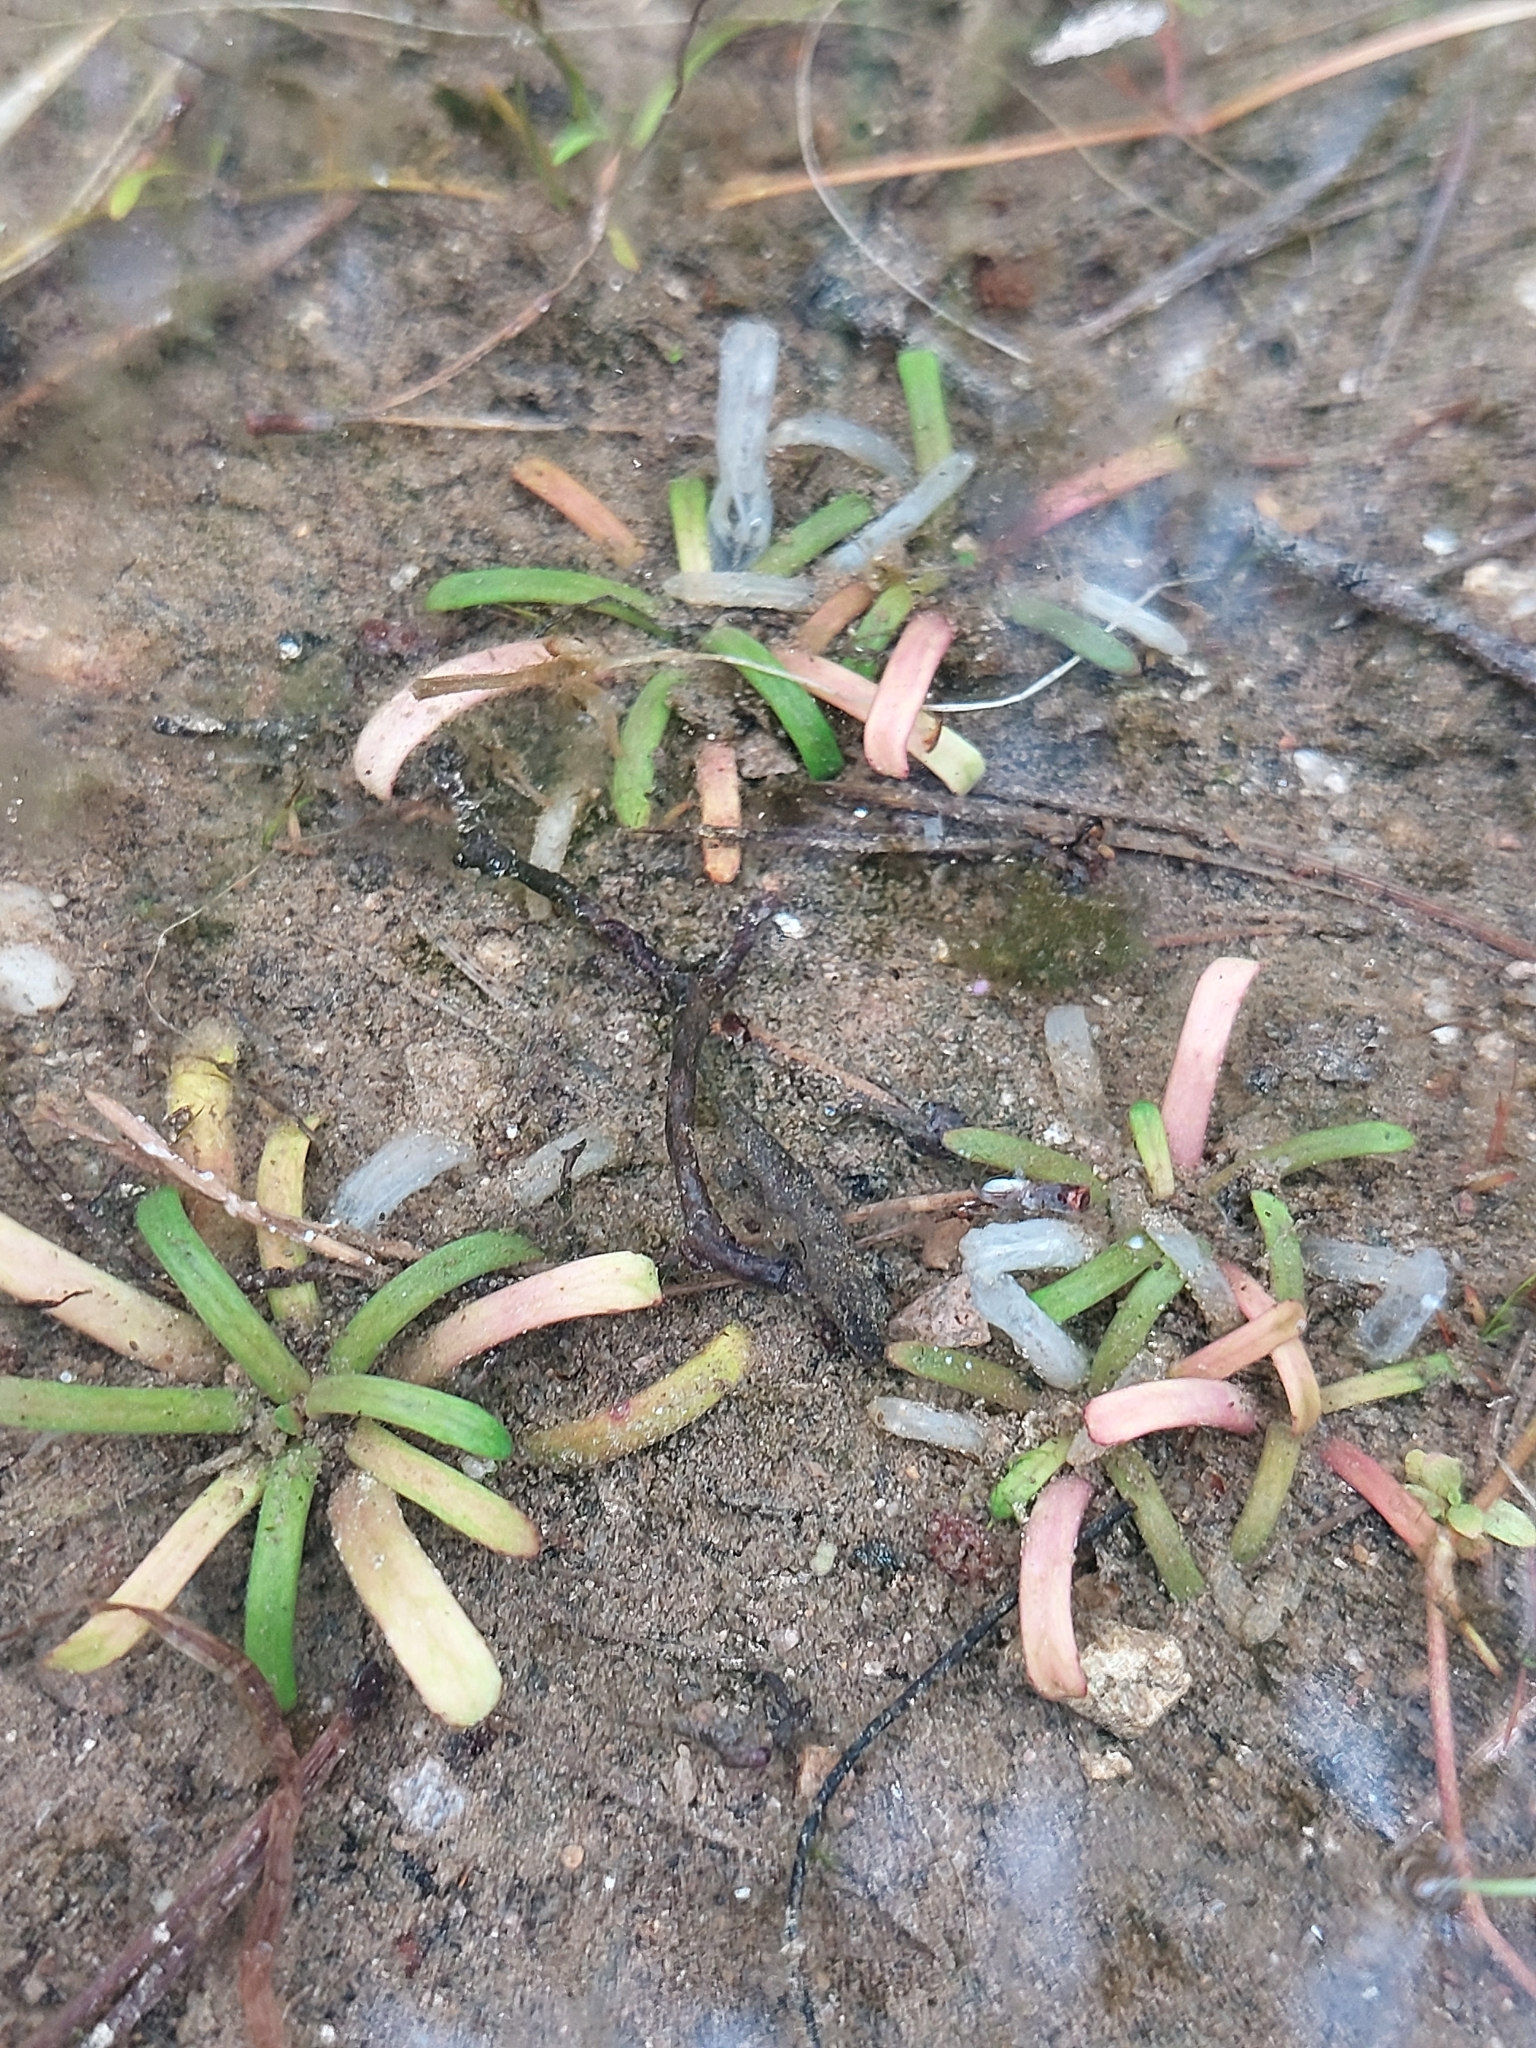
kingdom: Plantae
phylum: Tracheophyta
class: Magnoliopsida
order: Asterales
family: Campanulaceae
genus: Lobelia
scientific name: Lobelia dortmanna
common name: Water lobelia
